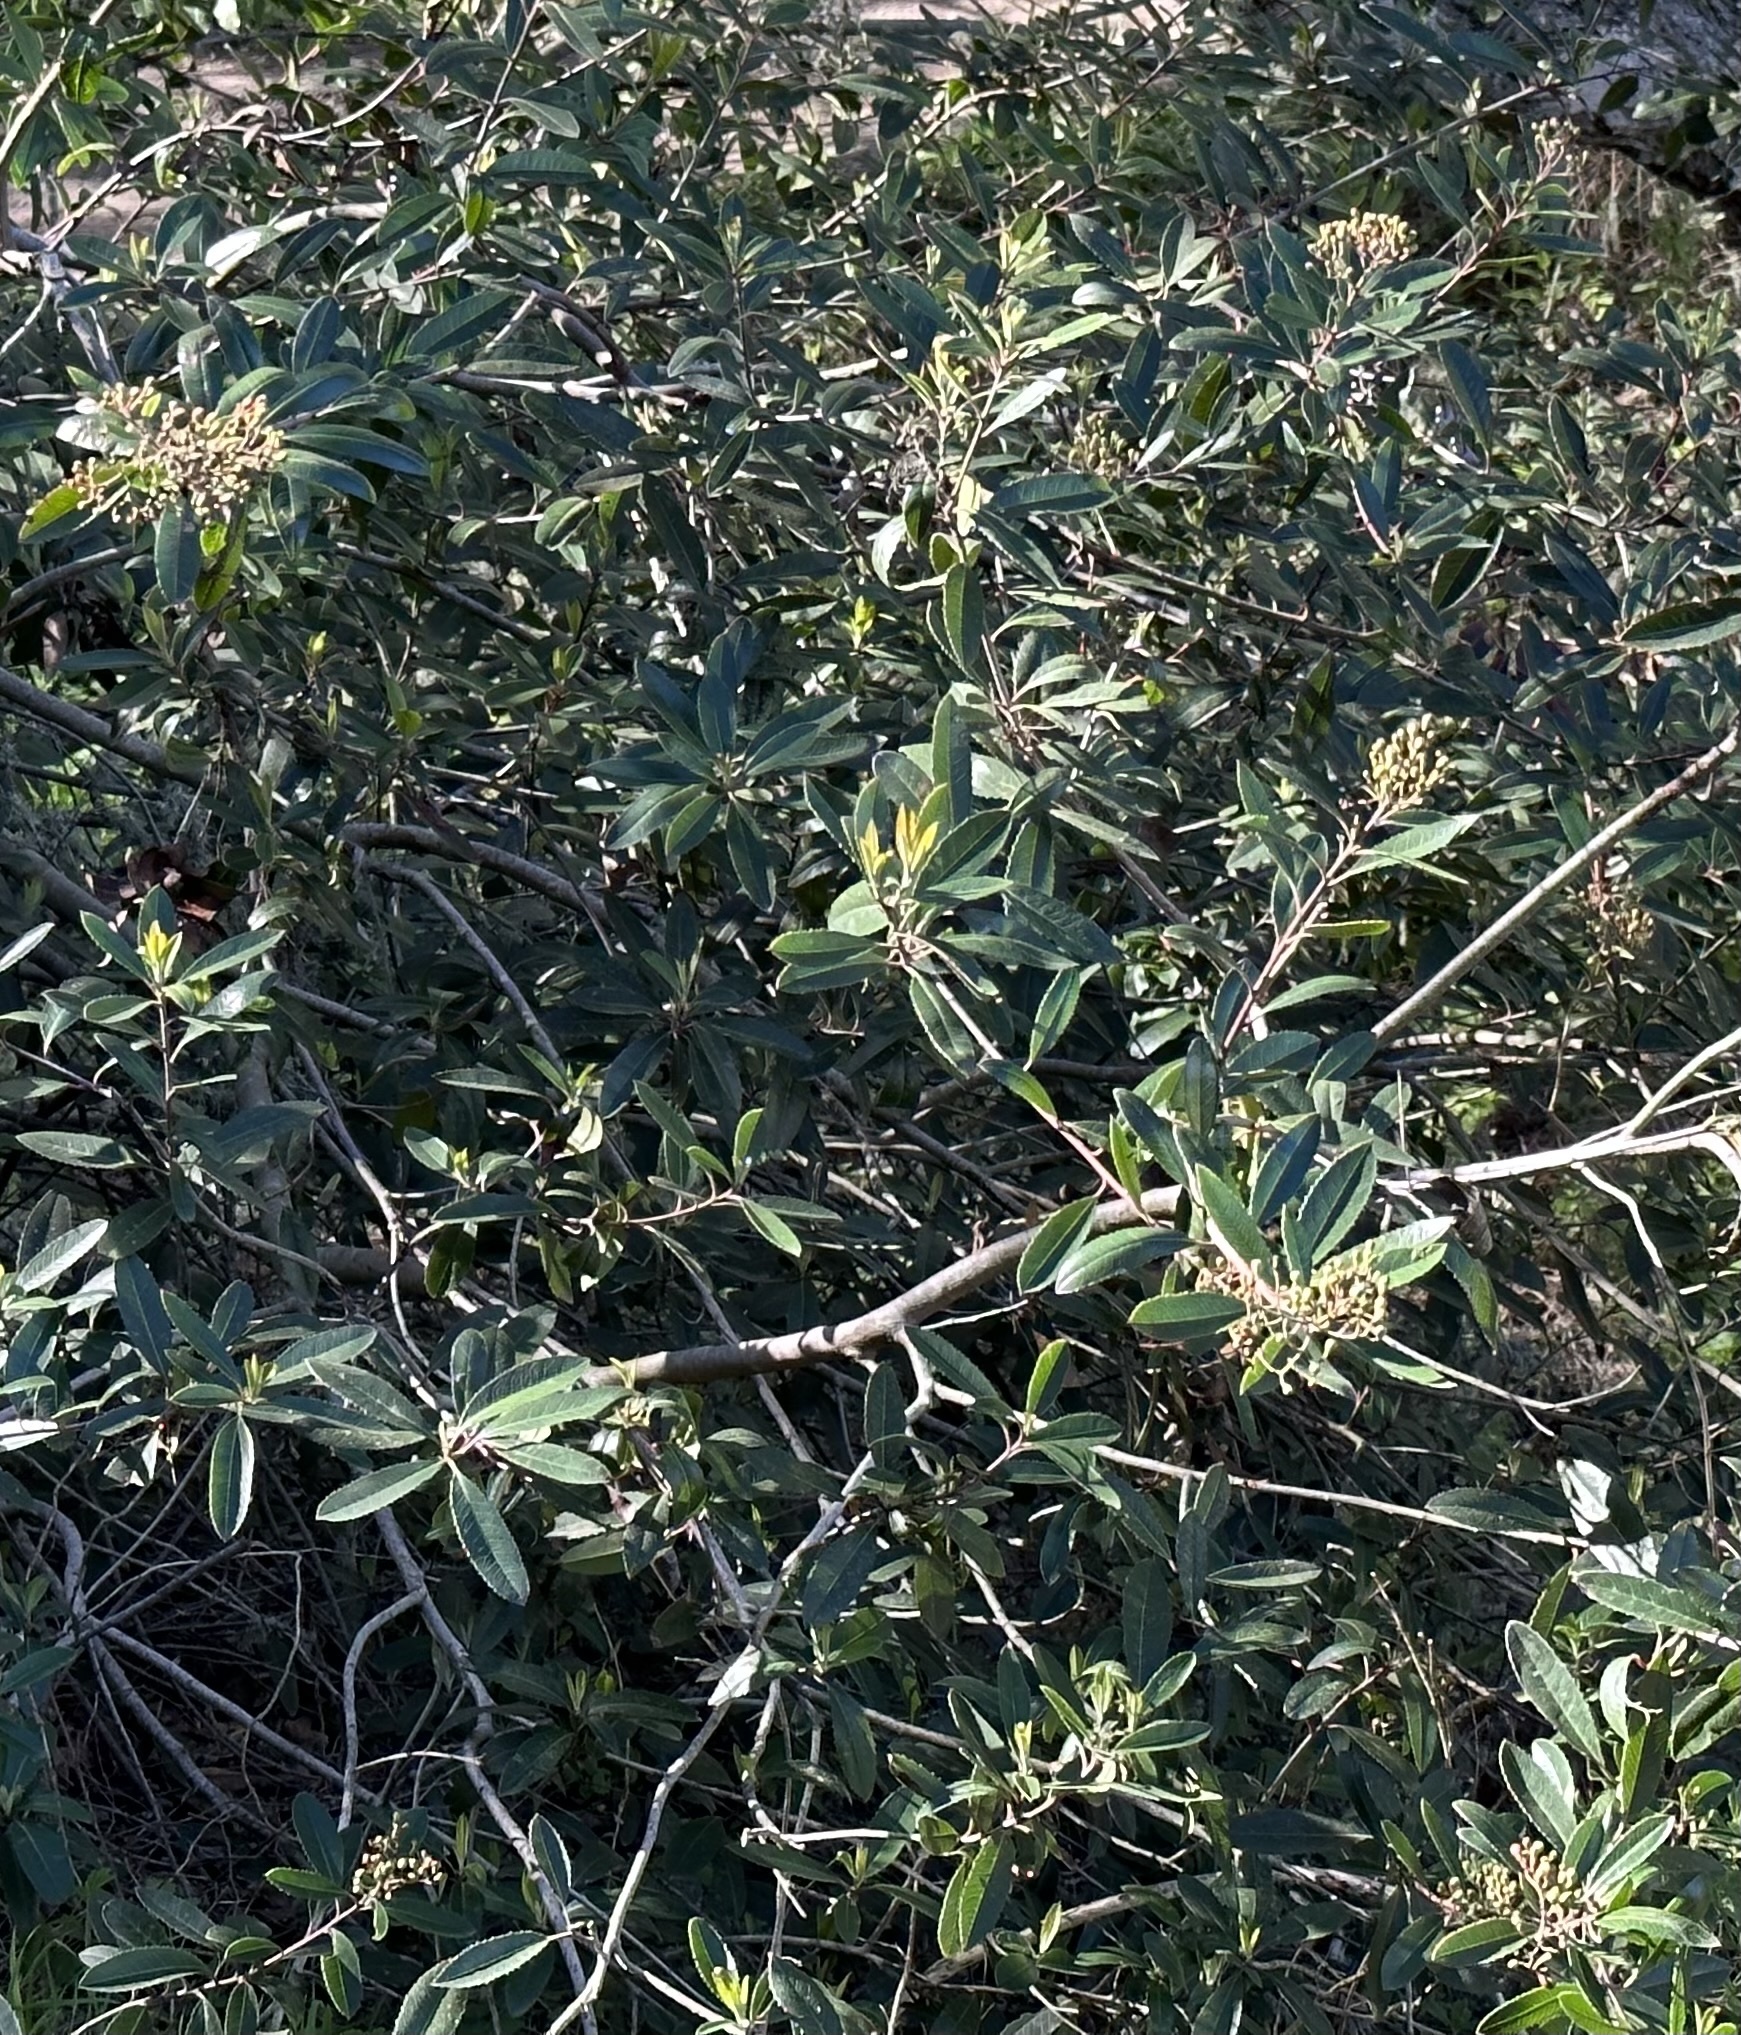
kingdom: Plantae
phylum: Tracheophyta
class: Magnoliopsida
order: Rosales
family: Rosaceae
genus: Heteromeles
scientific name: Heteromeles arbutifolia
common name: California-holly
